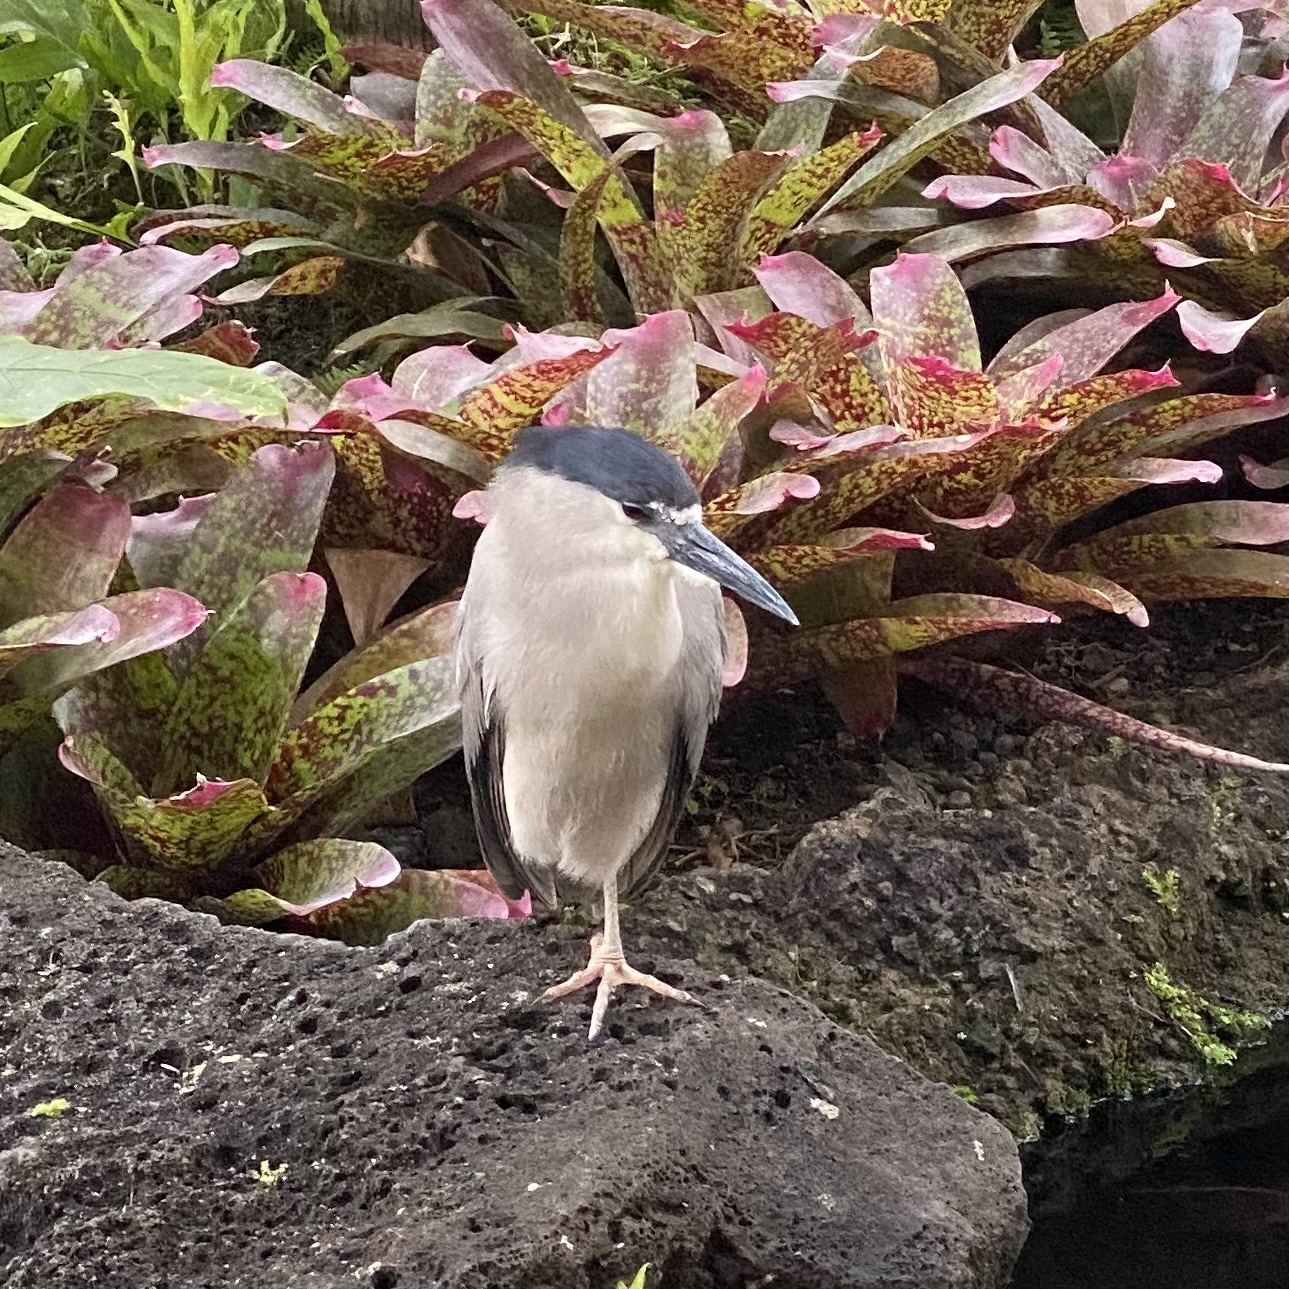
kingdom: Animalia
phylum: Chordata
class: Aves
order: Pelecaniformes
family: Ardeidae
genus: Nycticorax
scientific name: Nycticorax nycticorax
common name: Black-crowned night heron
